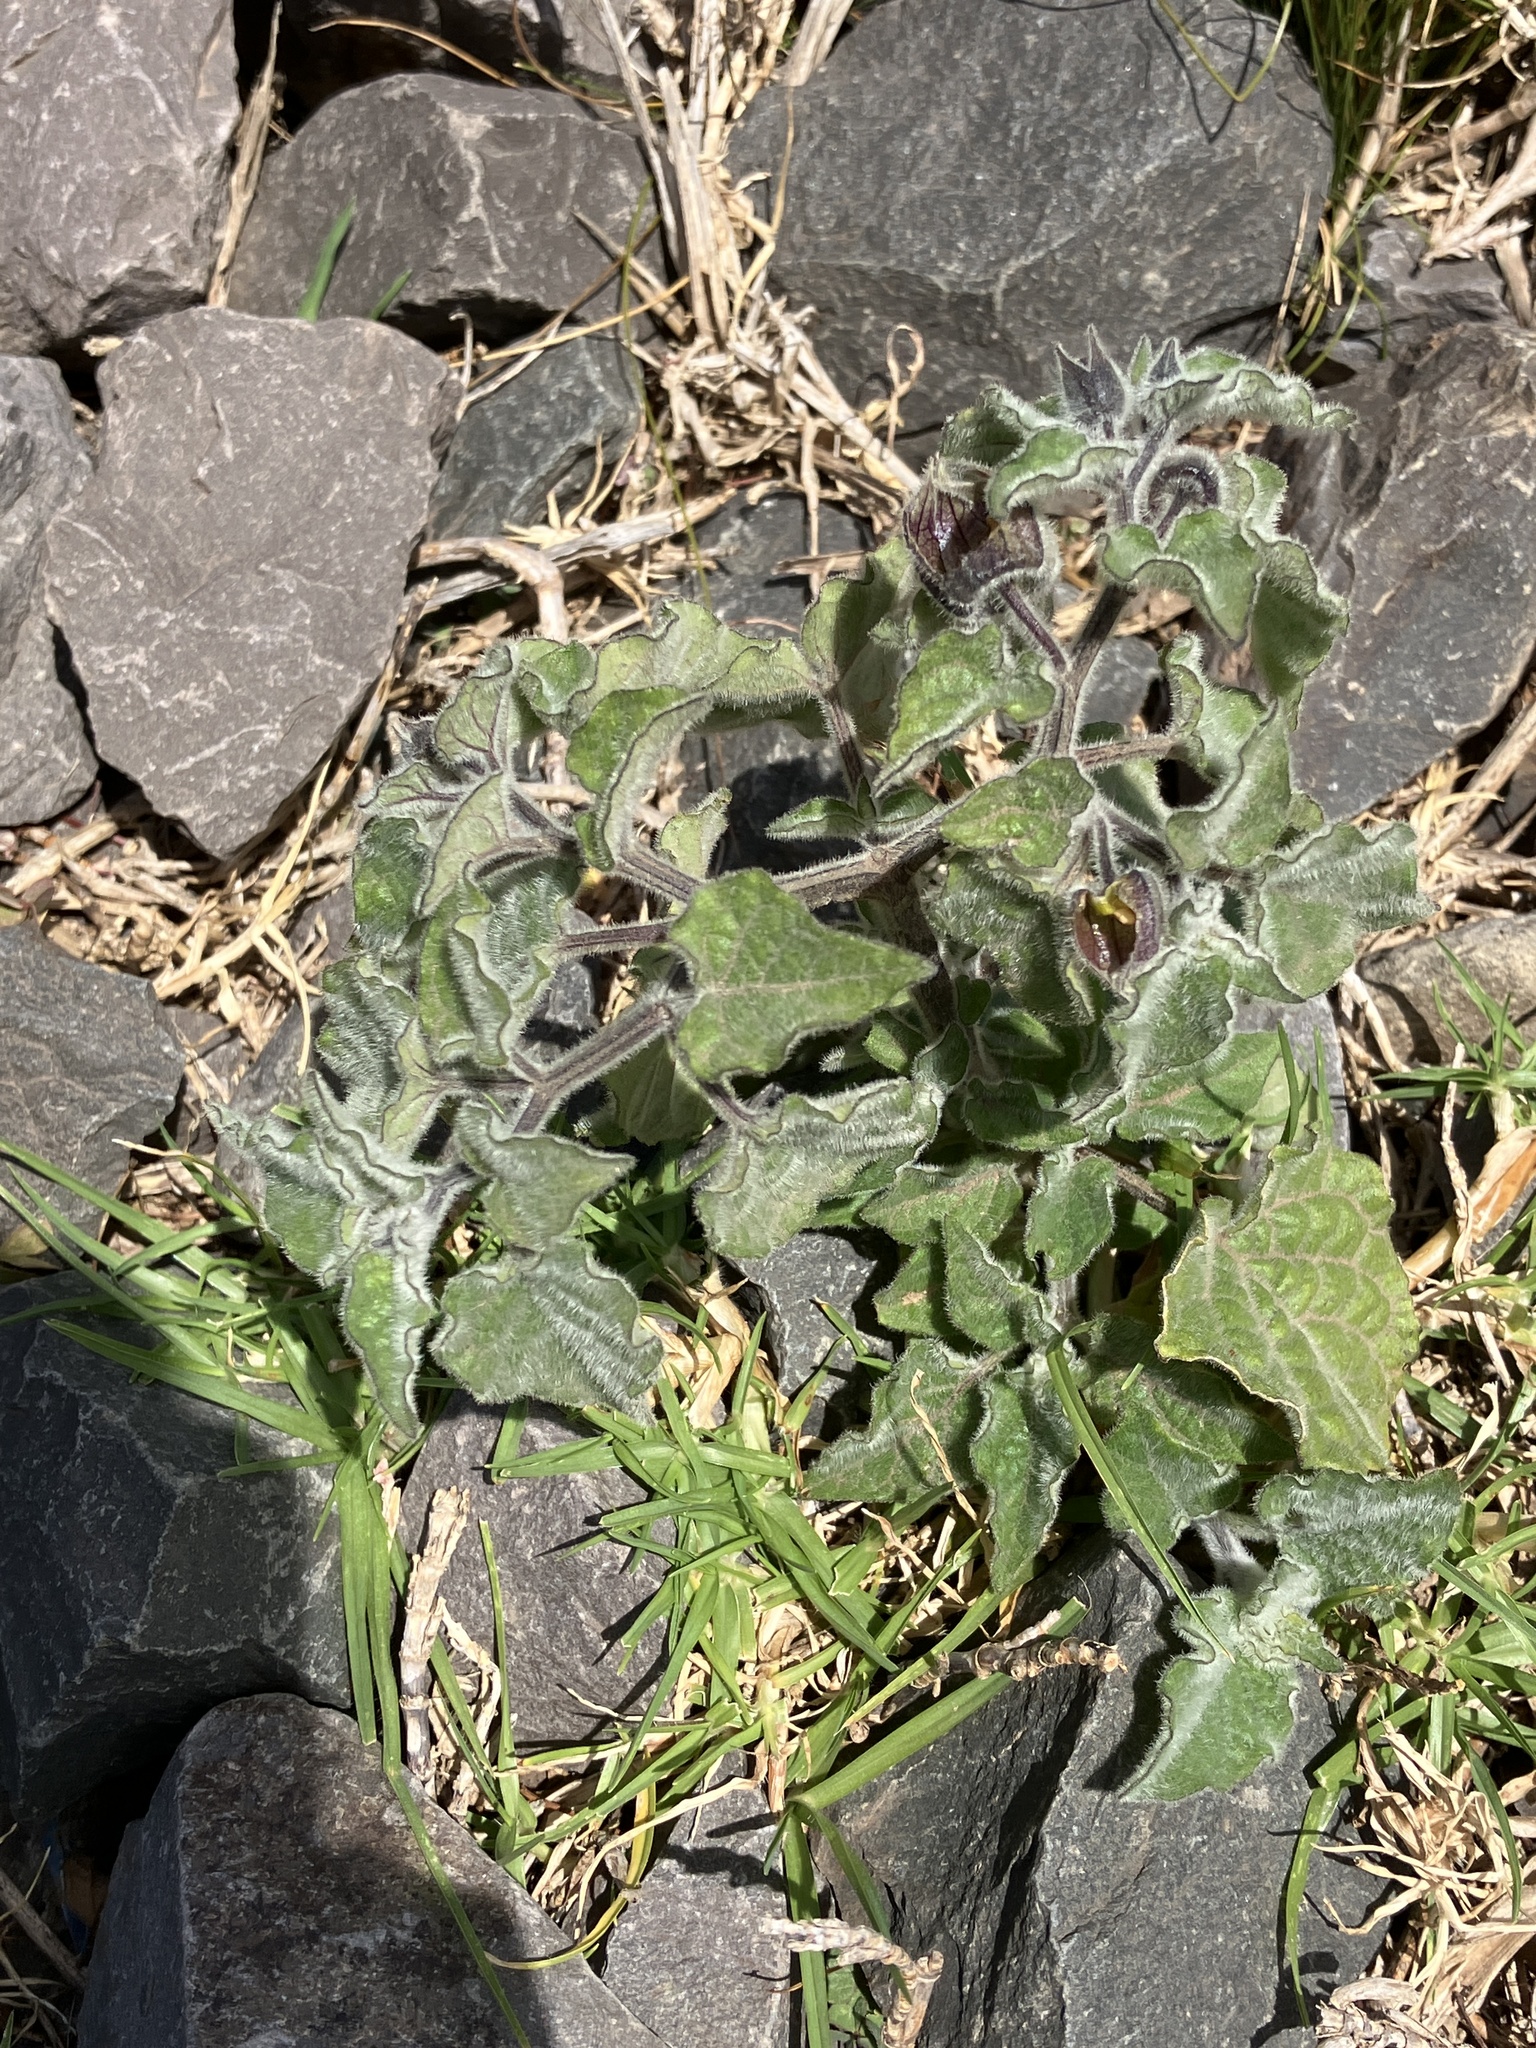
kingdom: Plantae
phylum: Tracheophyta
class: Magnoliopsida
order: Solanales
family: Solanaceae
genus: Physalis
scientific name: Physalis peruviana
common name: Cape-gooseberry
